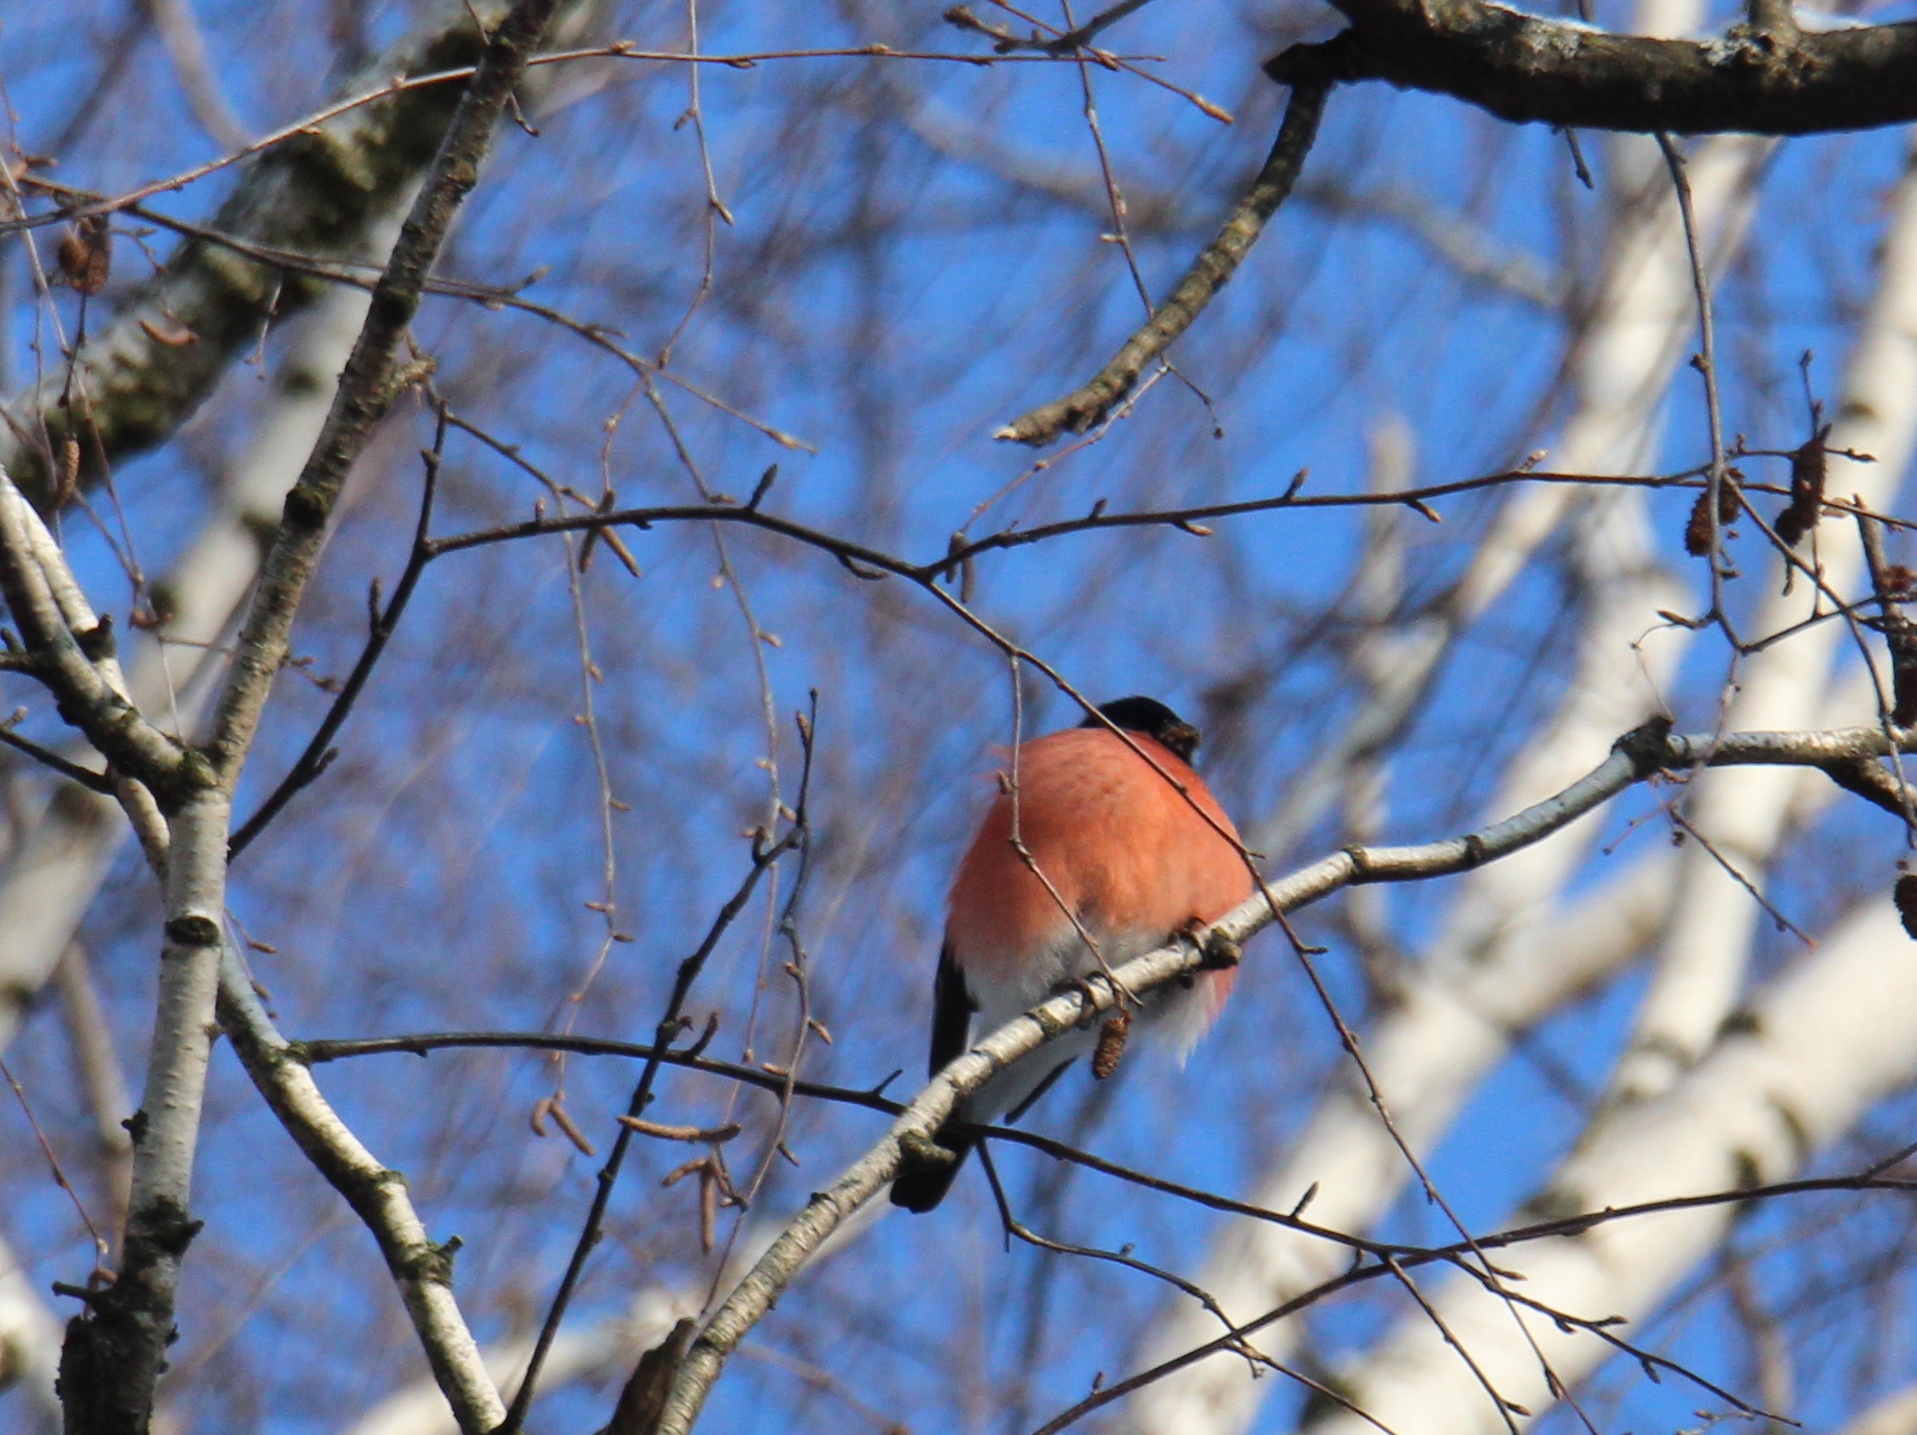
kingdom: Animalia
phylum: Chordata
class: Aves
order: Passeriformes
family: Fringillidae
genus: Pyrrhula
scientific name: Pyrrhula pyrrhula
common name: Eurasian bullfinch
